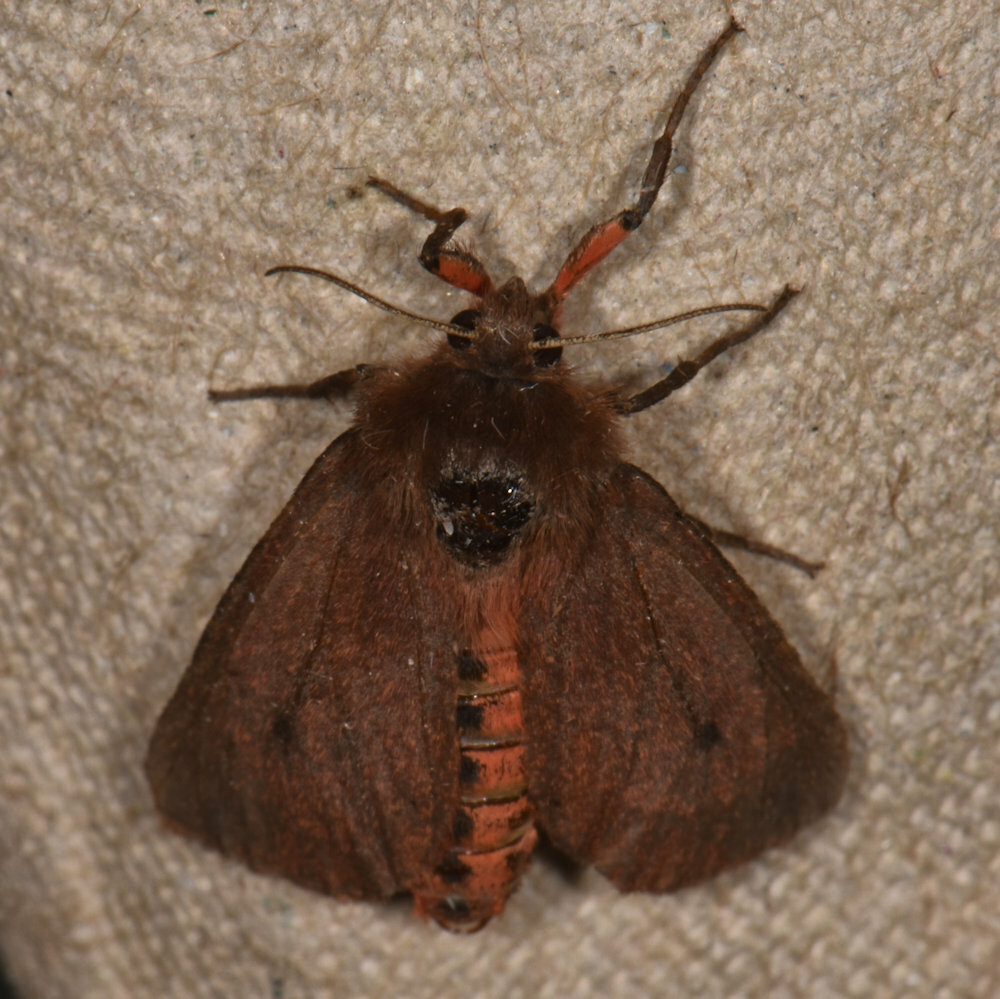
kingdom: Animalia
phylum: Arthropoda
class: Insecta
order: Lepidoptera
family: Erebidae
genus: Phragmatobia
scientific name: Phragmatobia fuliginosa
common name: Ruby tiger
